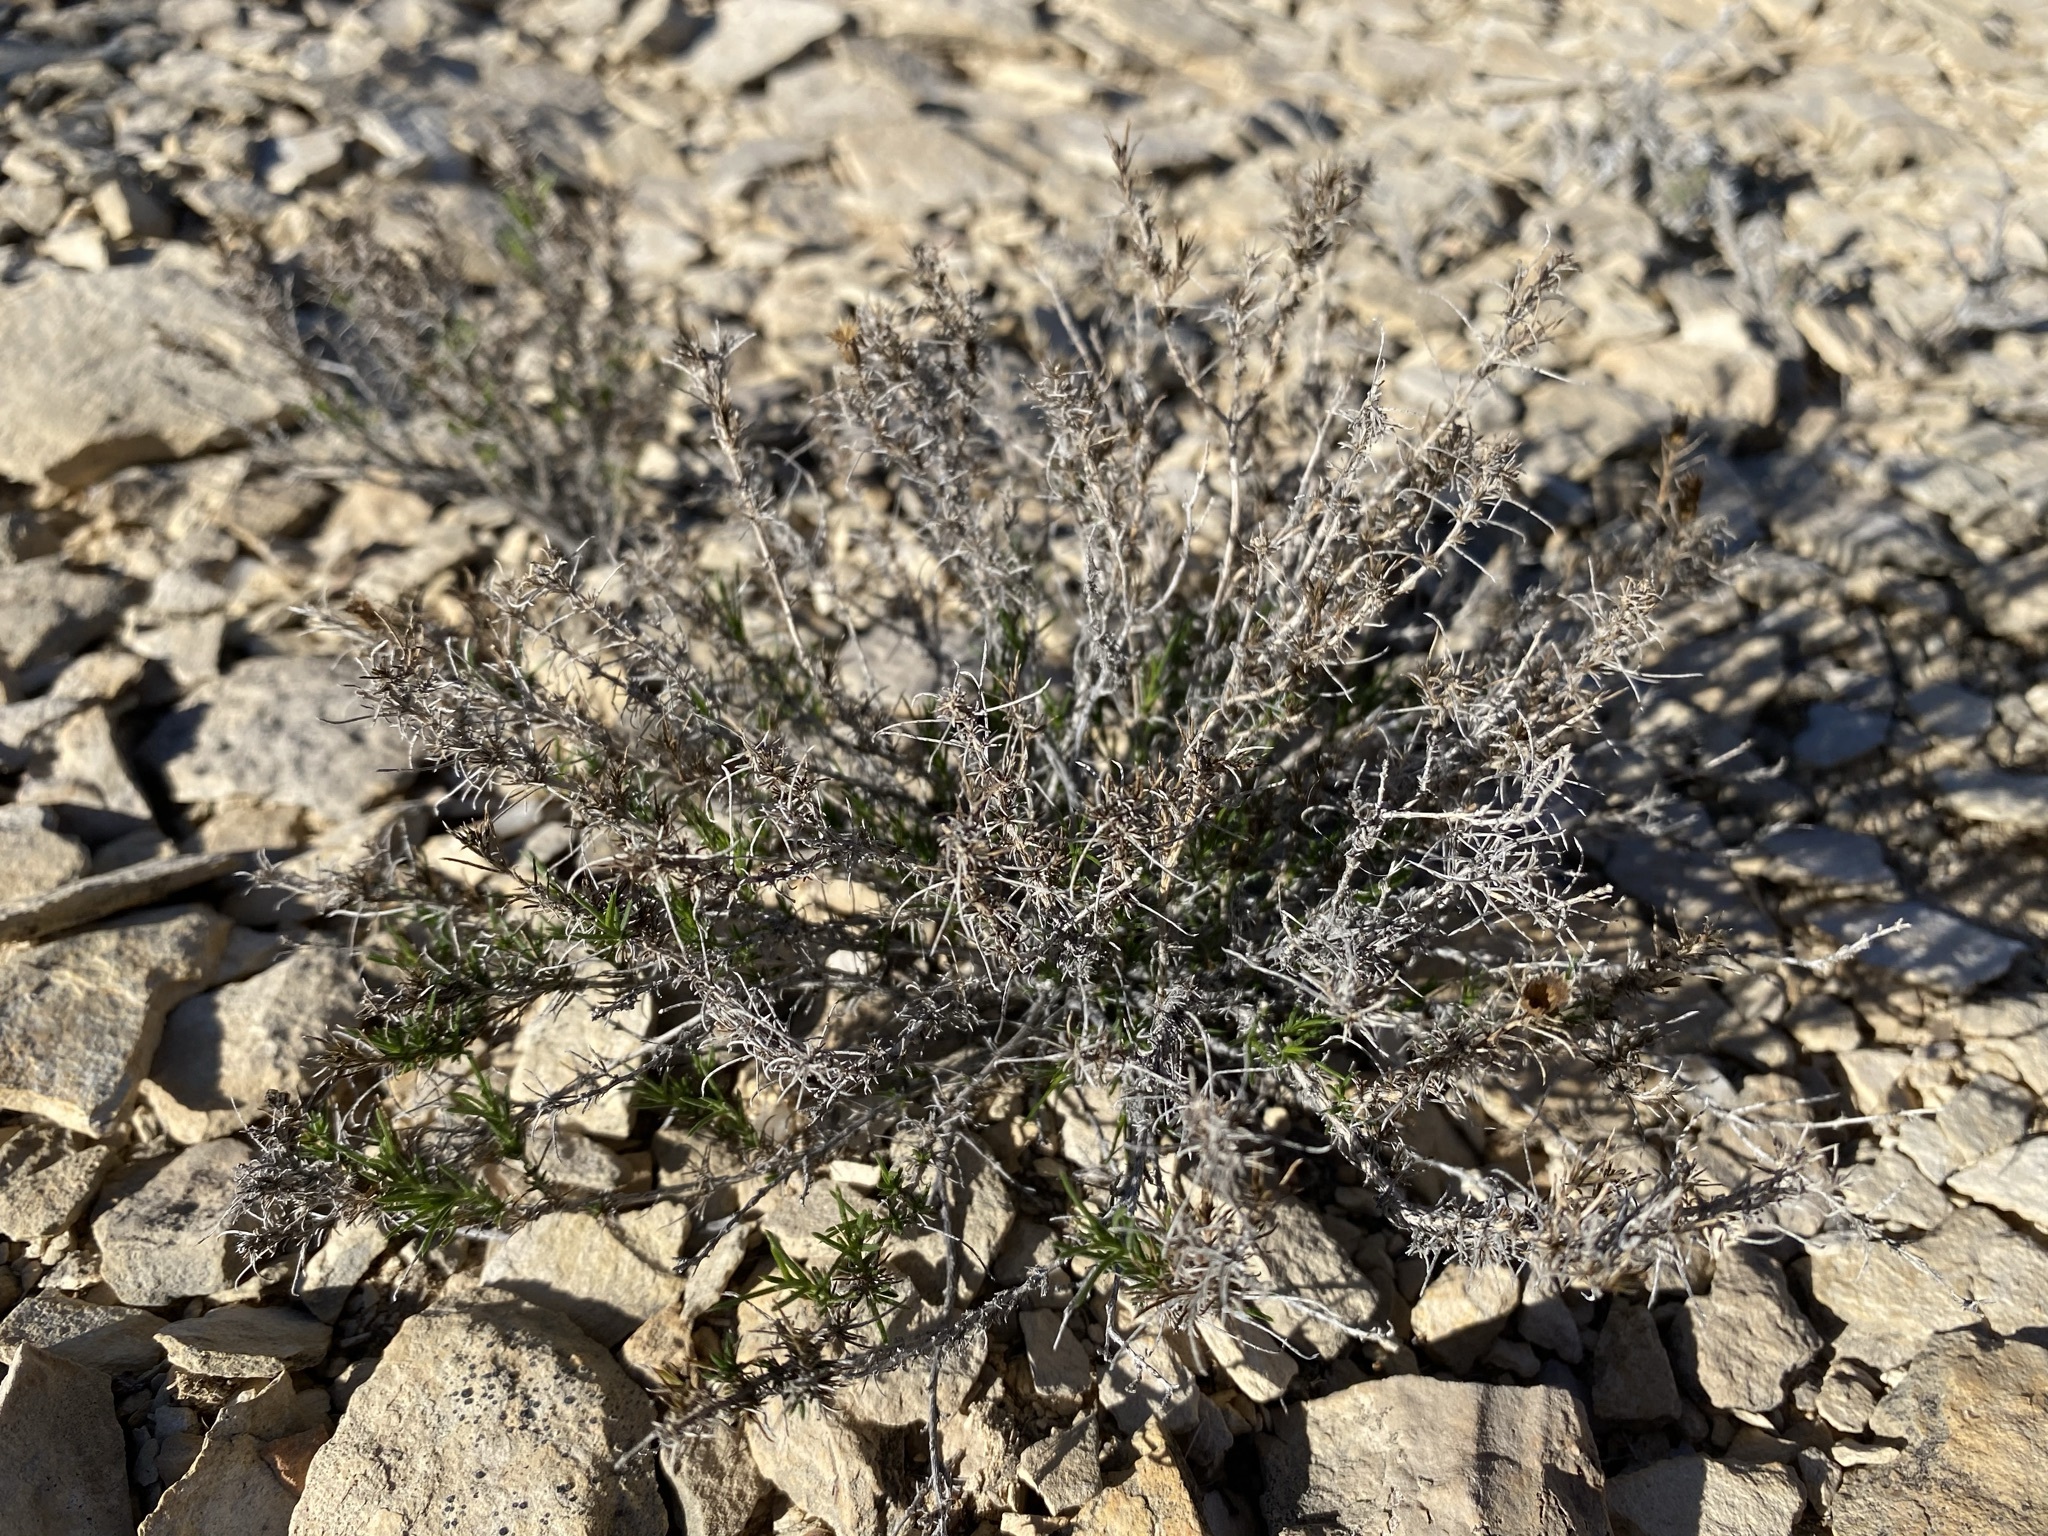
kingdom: Plantae
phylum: Tracheophyta
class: Magnoliopsida
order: Asterales
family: Asteraceae
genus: Thymophylla
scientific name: Thymophylla acerosa
